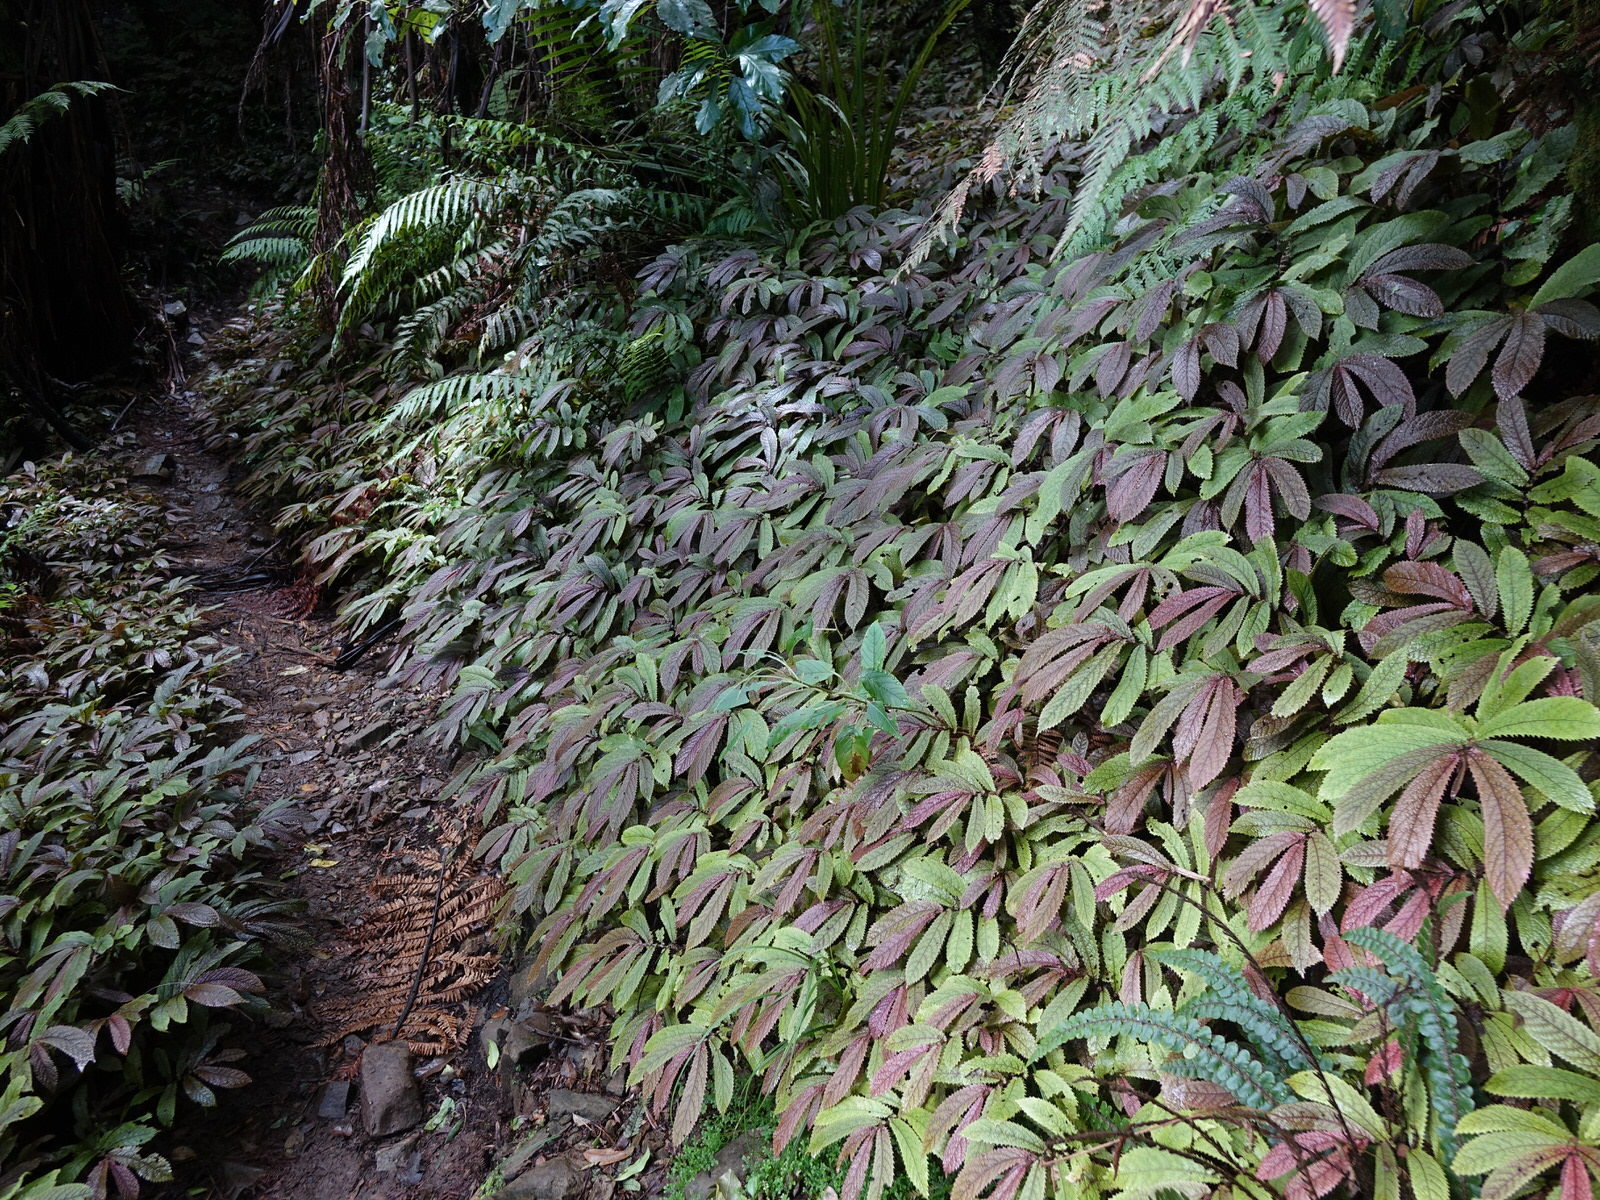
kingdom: Plantae
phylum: Tracheophyta
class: Magnoliopsida
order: Rosales
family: Urticaceae
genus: Elatostema
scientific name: Elatostema rugosum
